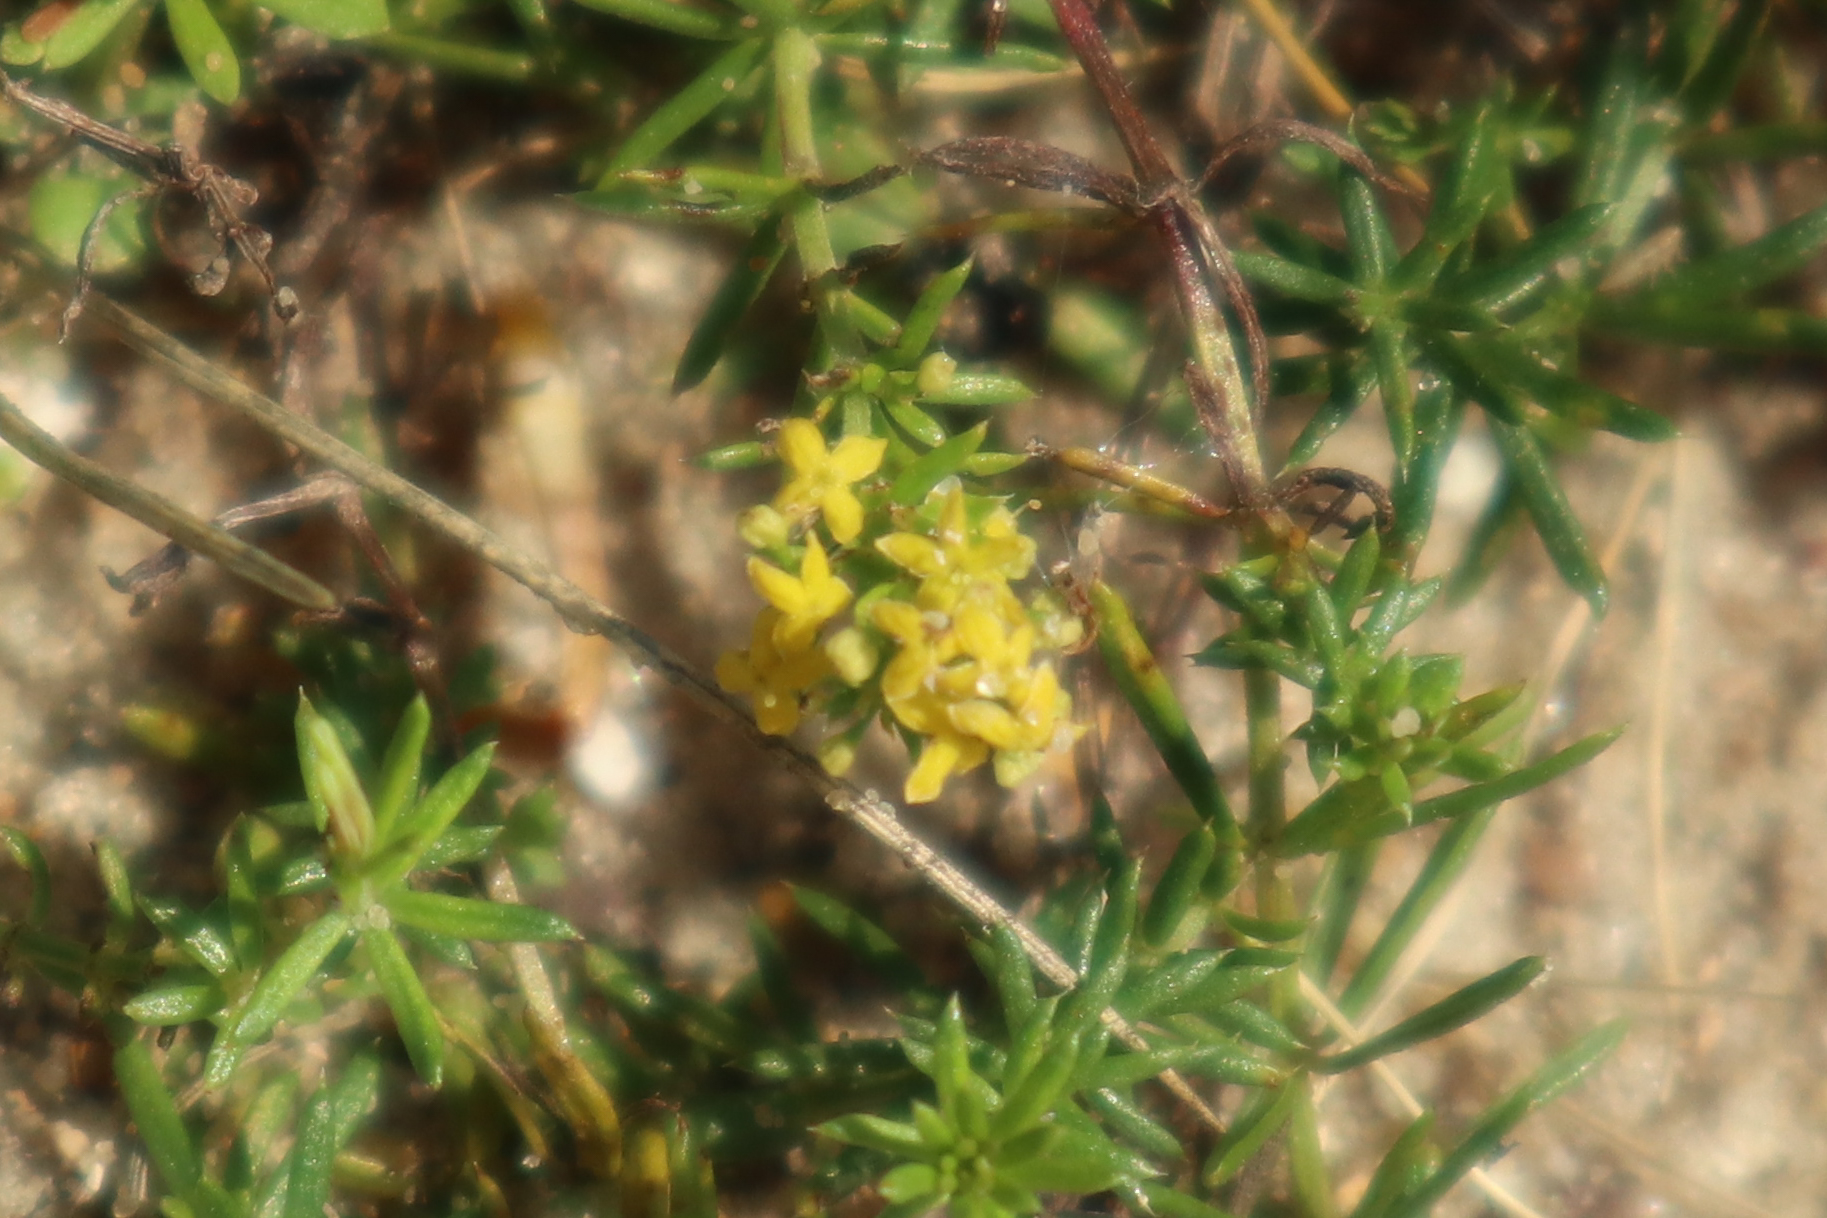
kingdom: Plantae
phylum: Tracheophyta
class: Magnoliopsida
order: Gentianales
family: Rubiaceae
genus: Galium
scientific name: Galium verum
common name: Lady's bedstraw
